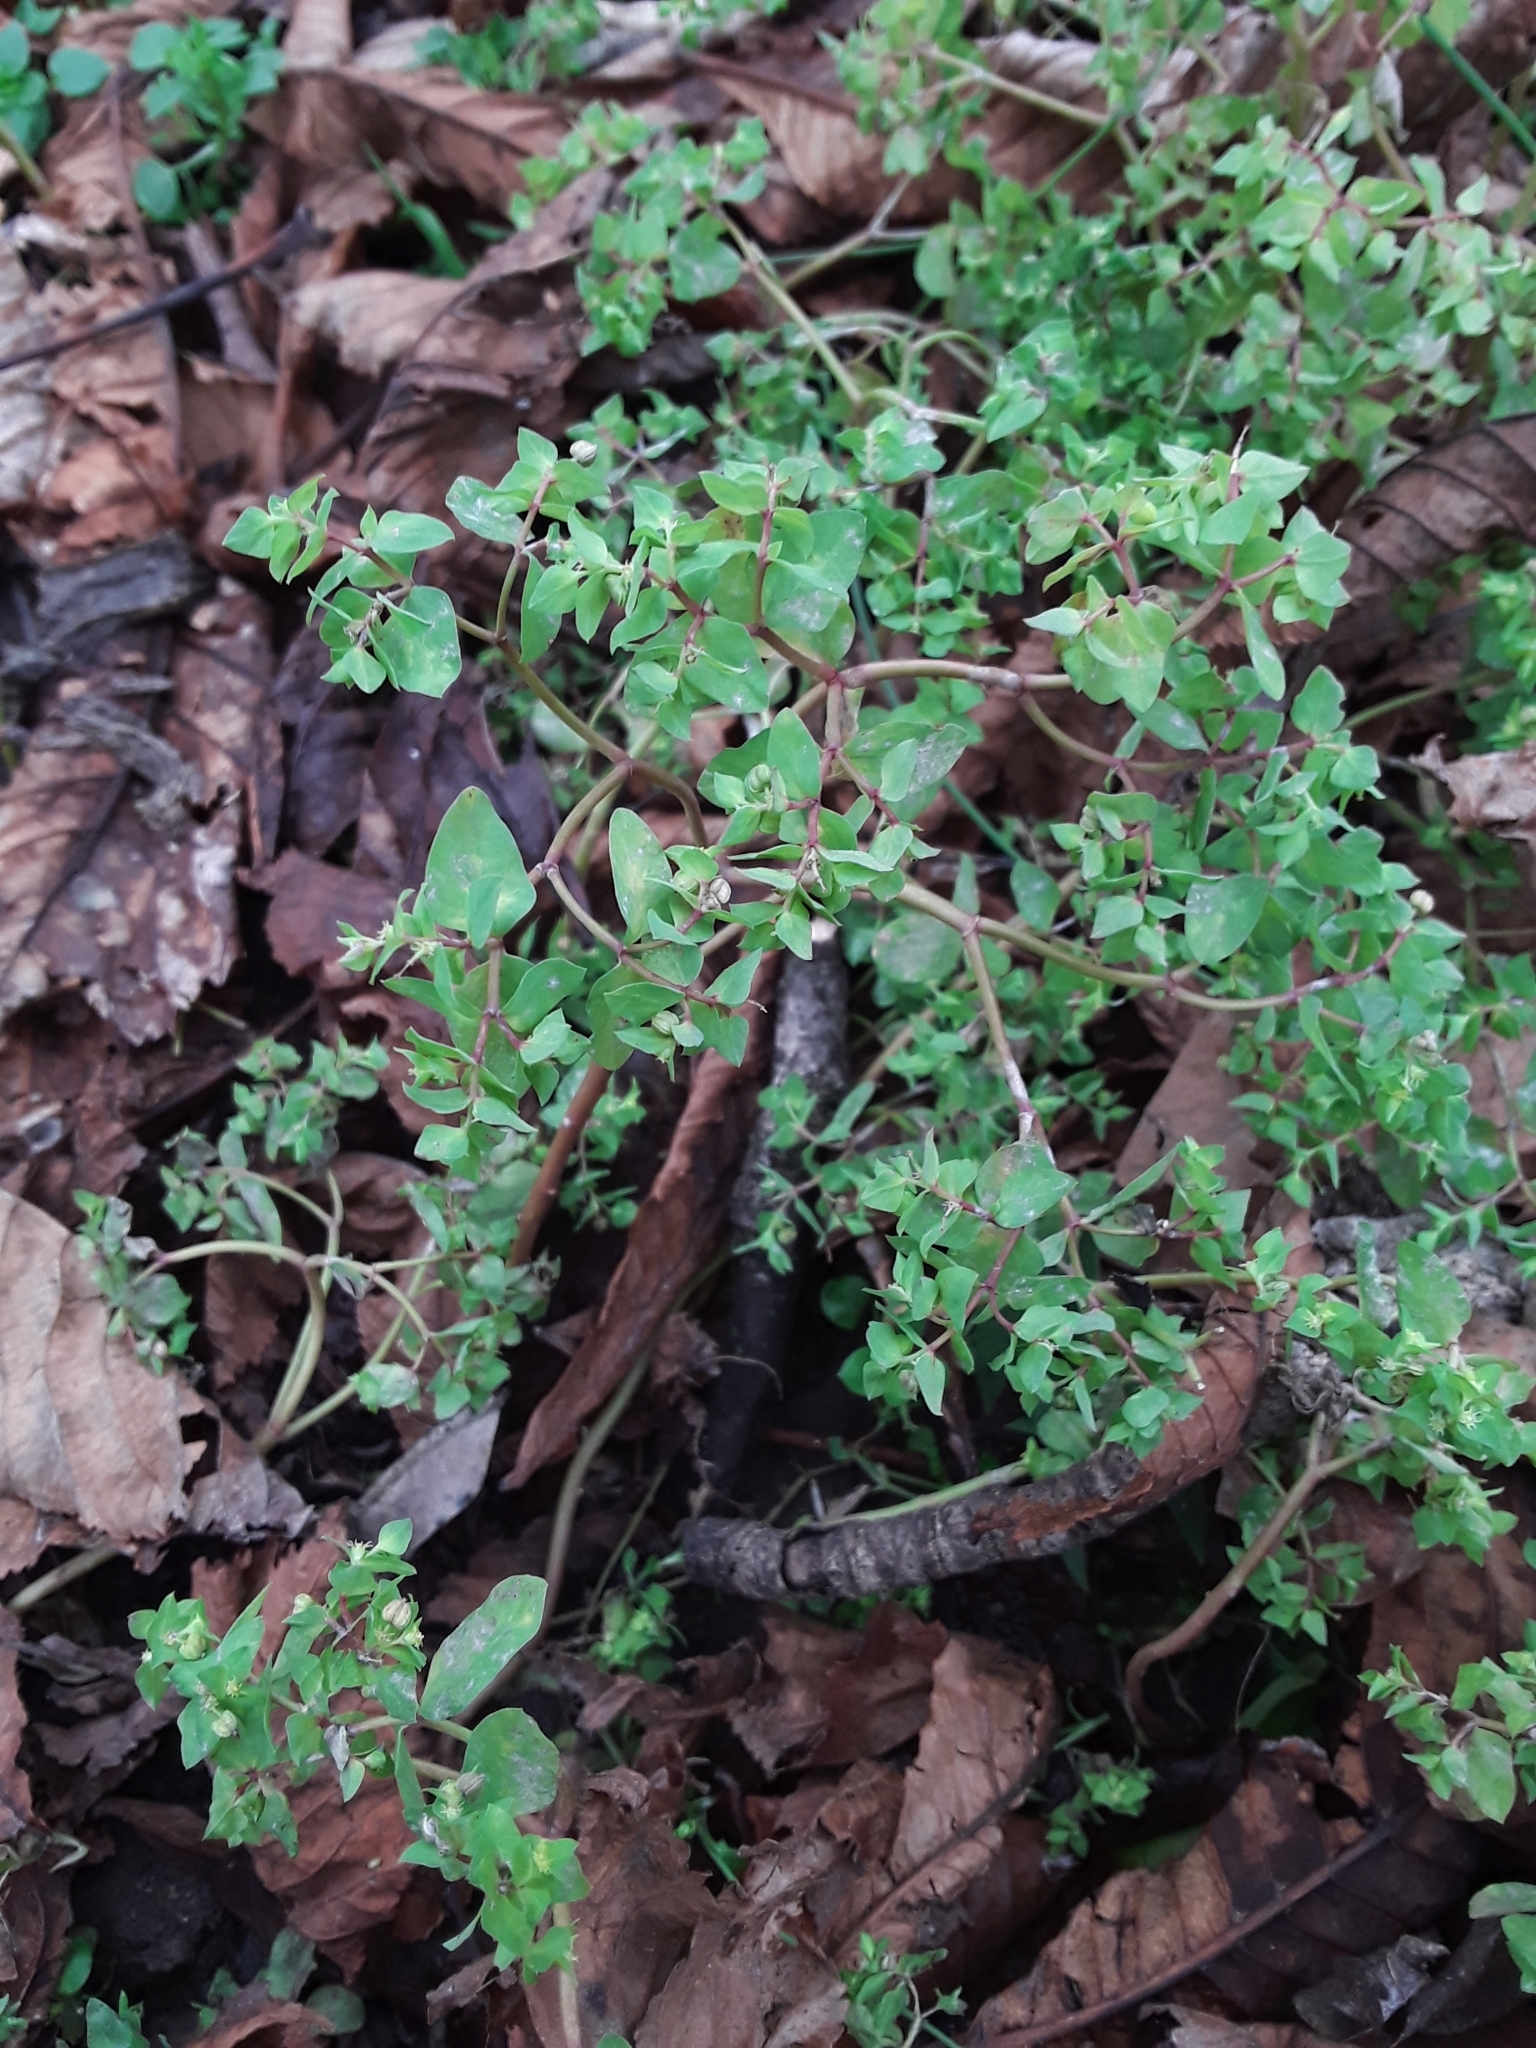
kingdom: Plantae
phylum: Tracheophyta
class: Magnoliopsida
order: Malpighiales
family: Euphorbiaceae
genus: Euphorbia
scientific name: Euphorbia peplus
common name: Petty spurge
